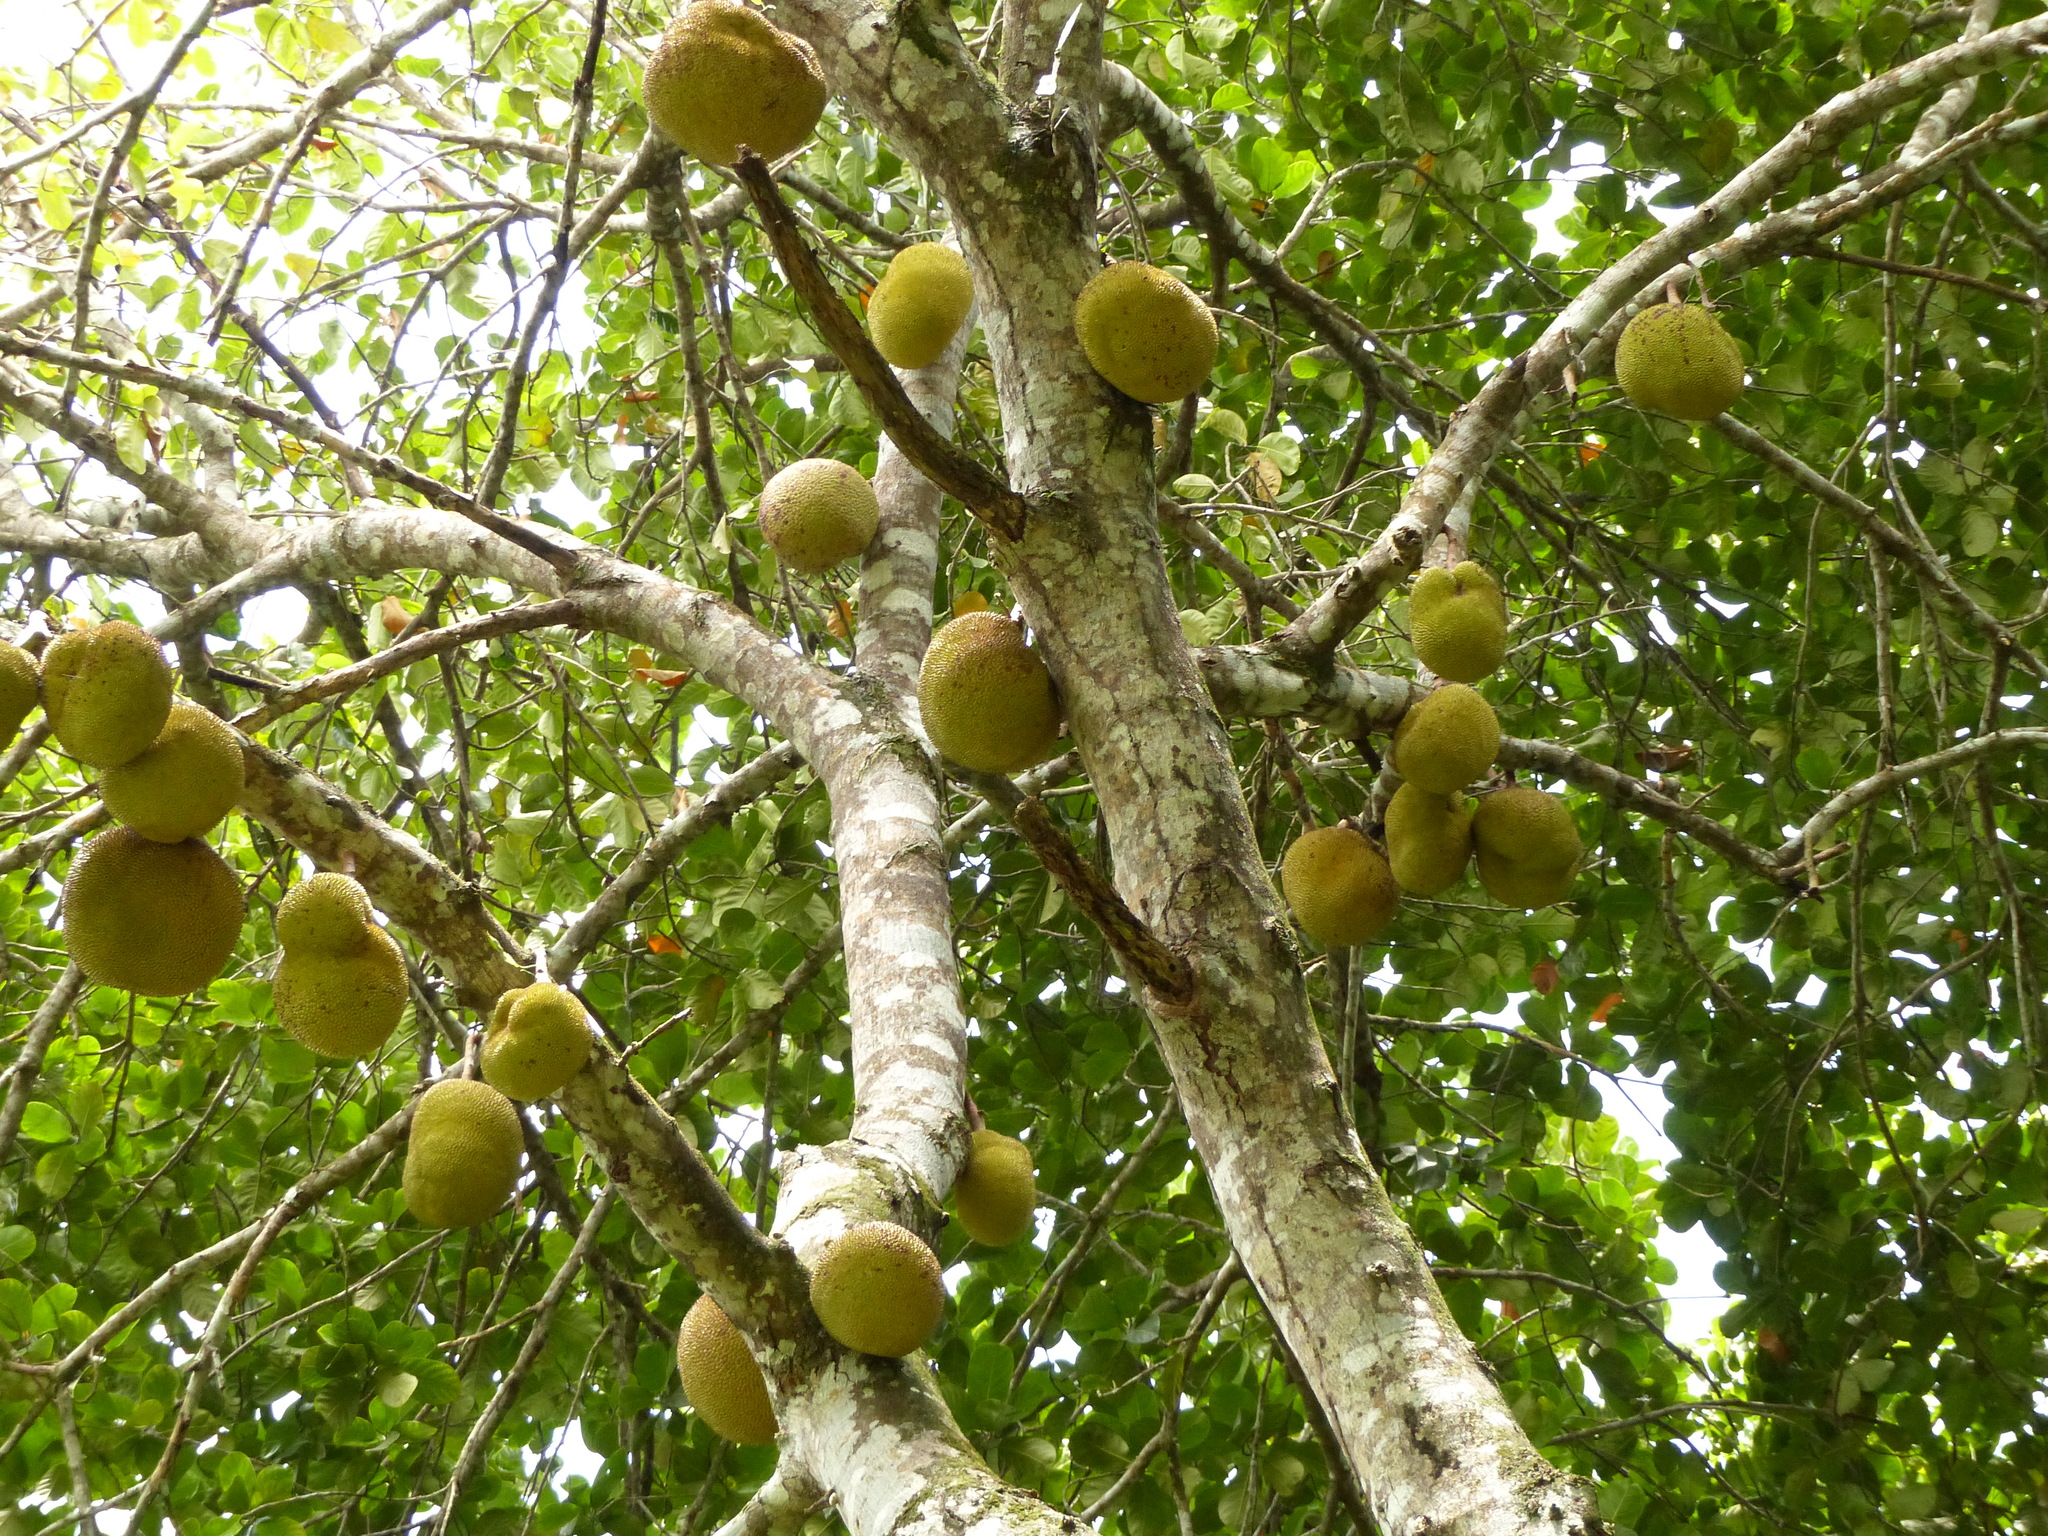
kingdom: Plantae
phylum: Tracheophyta
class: Magnoliopsida
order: Rosales
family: Moraceae
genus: Artocarpus
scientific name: Artocarpus heterophyllus
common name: Jackfruit
